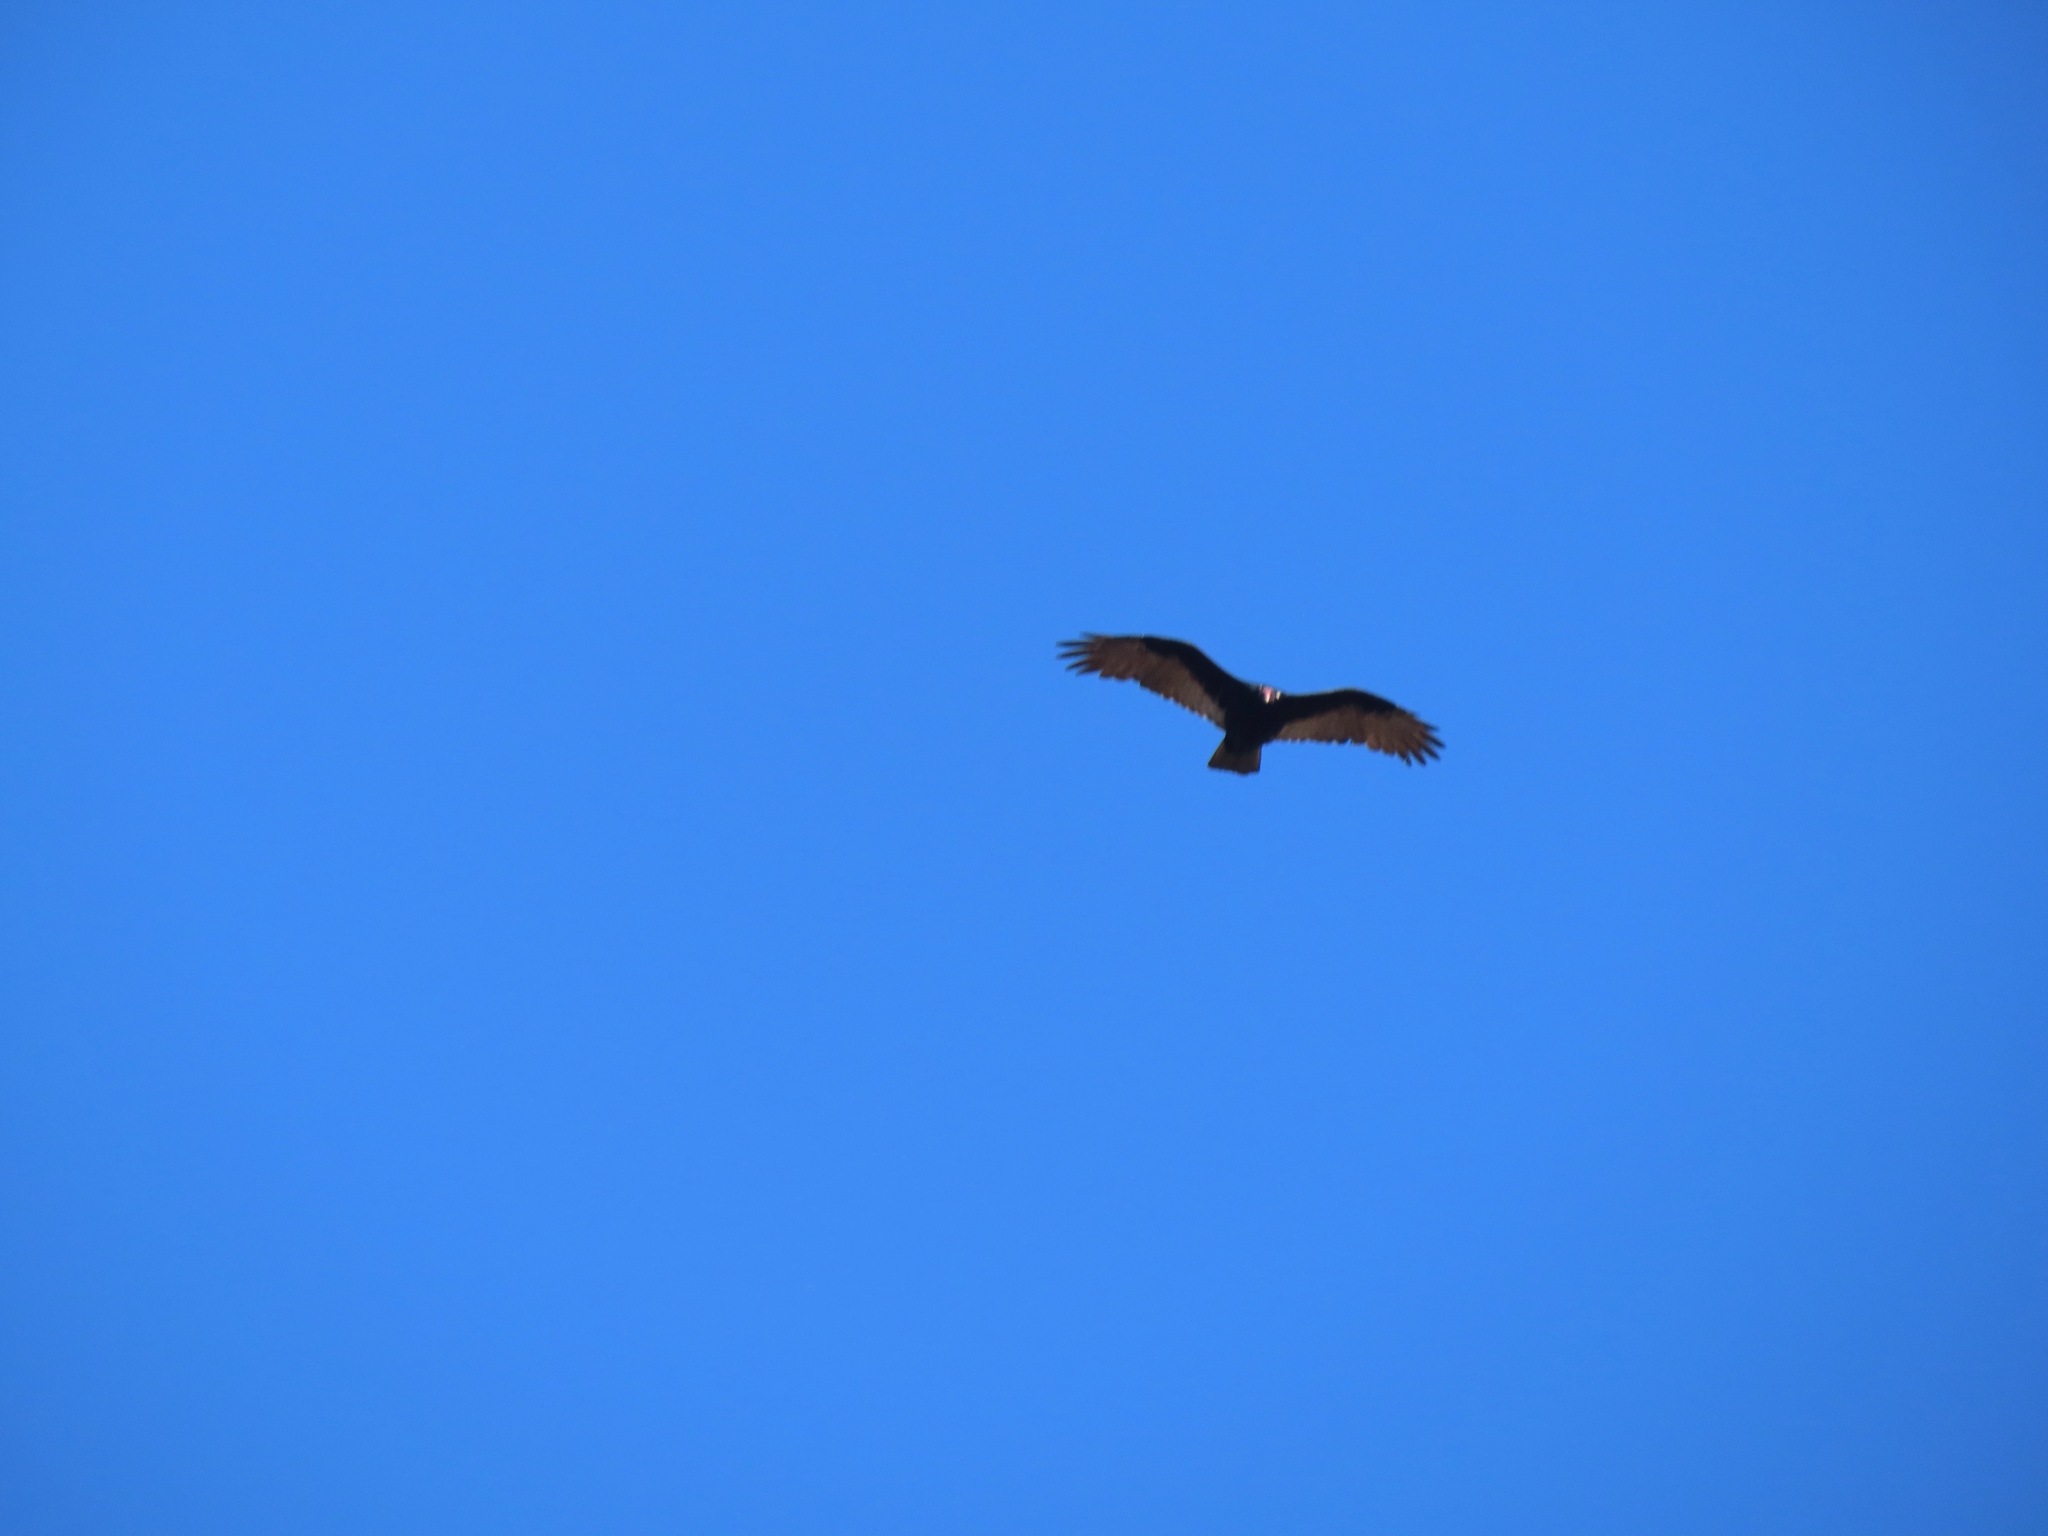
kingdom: Animalia
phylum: Chordata
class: Aves
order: Accipitriformes
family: Cathartidae
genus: Cathartes
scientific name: Cathartes aura
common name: Turkey vulture
